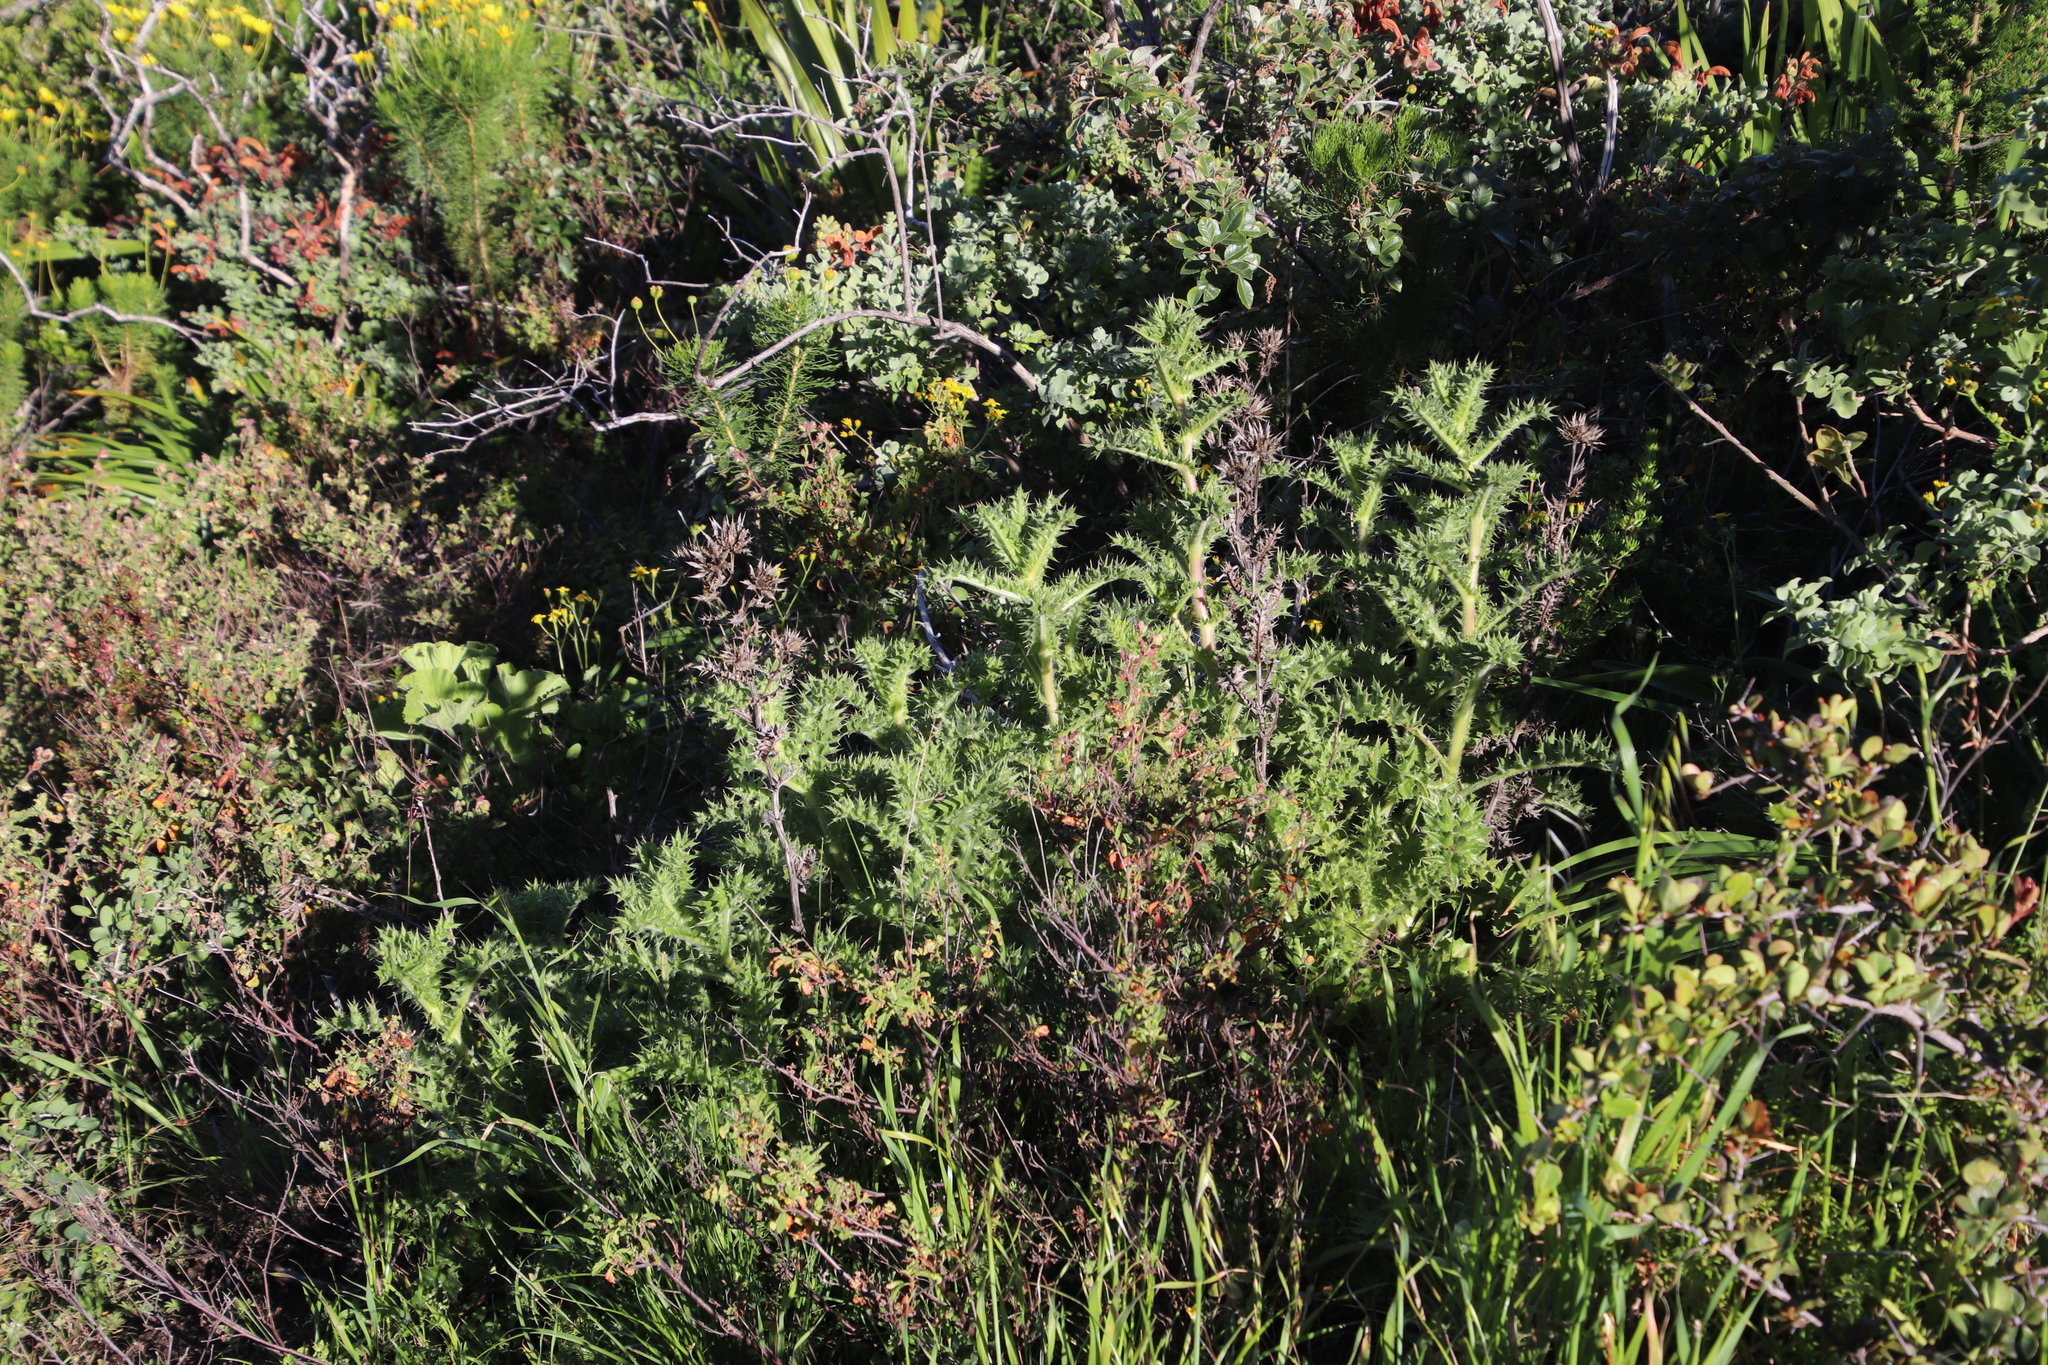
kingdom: Plantae
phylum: Tracheophyta
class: Magnoliopsida
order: Asterales
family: Asteraceae
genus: Berkheya
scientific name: Berkheya carlinifolia
